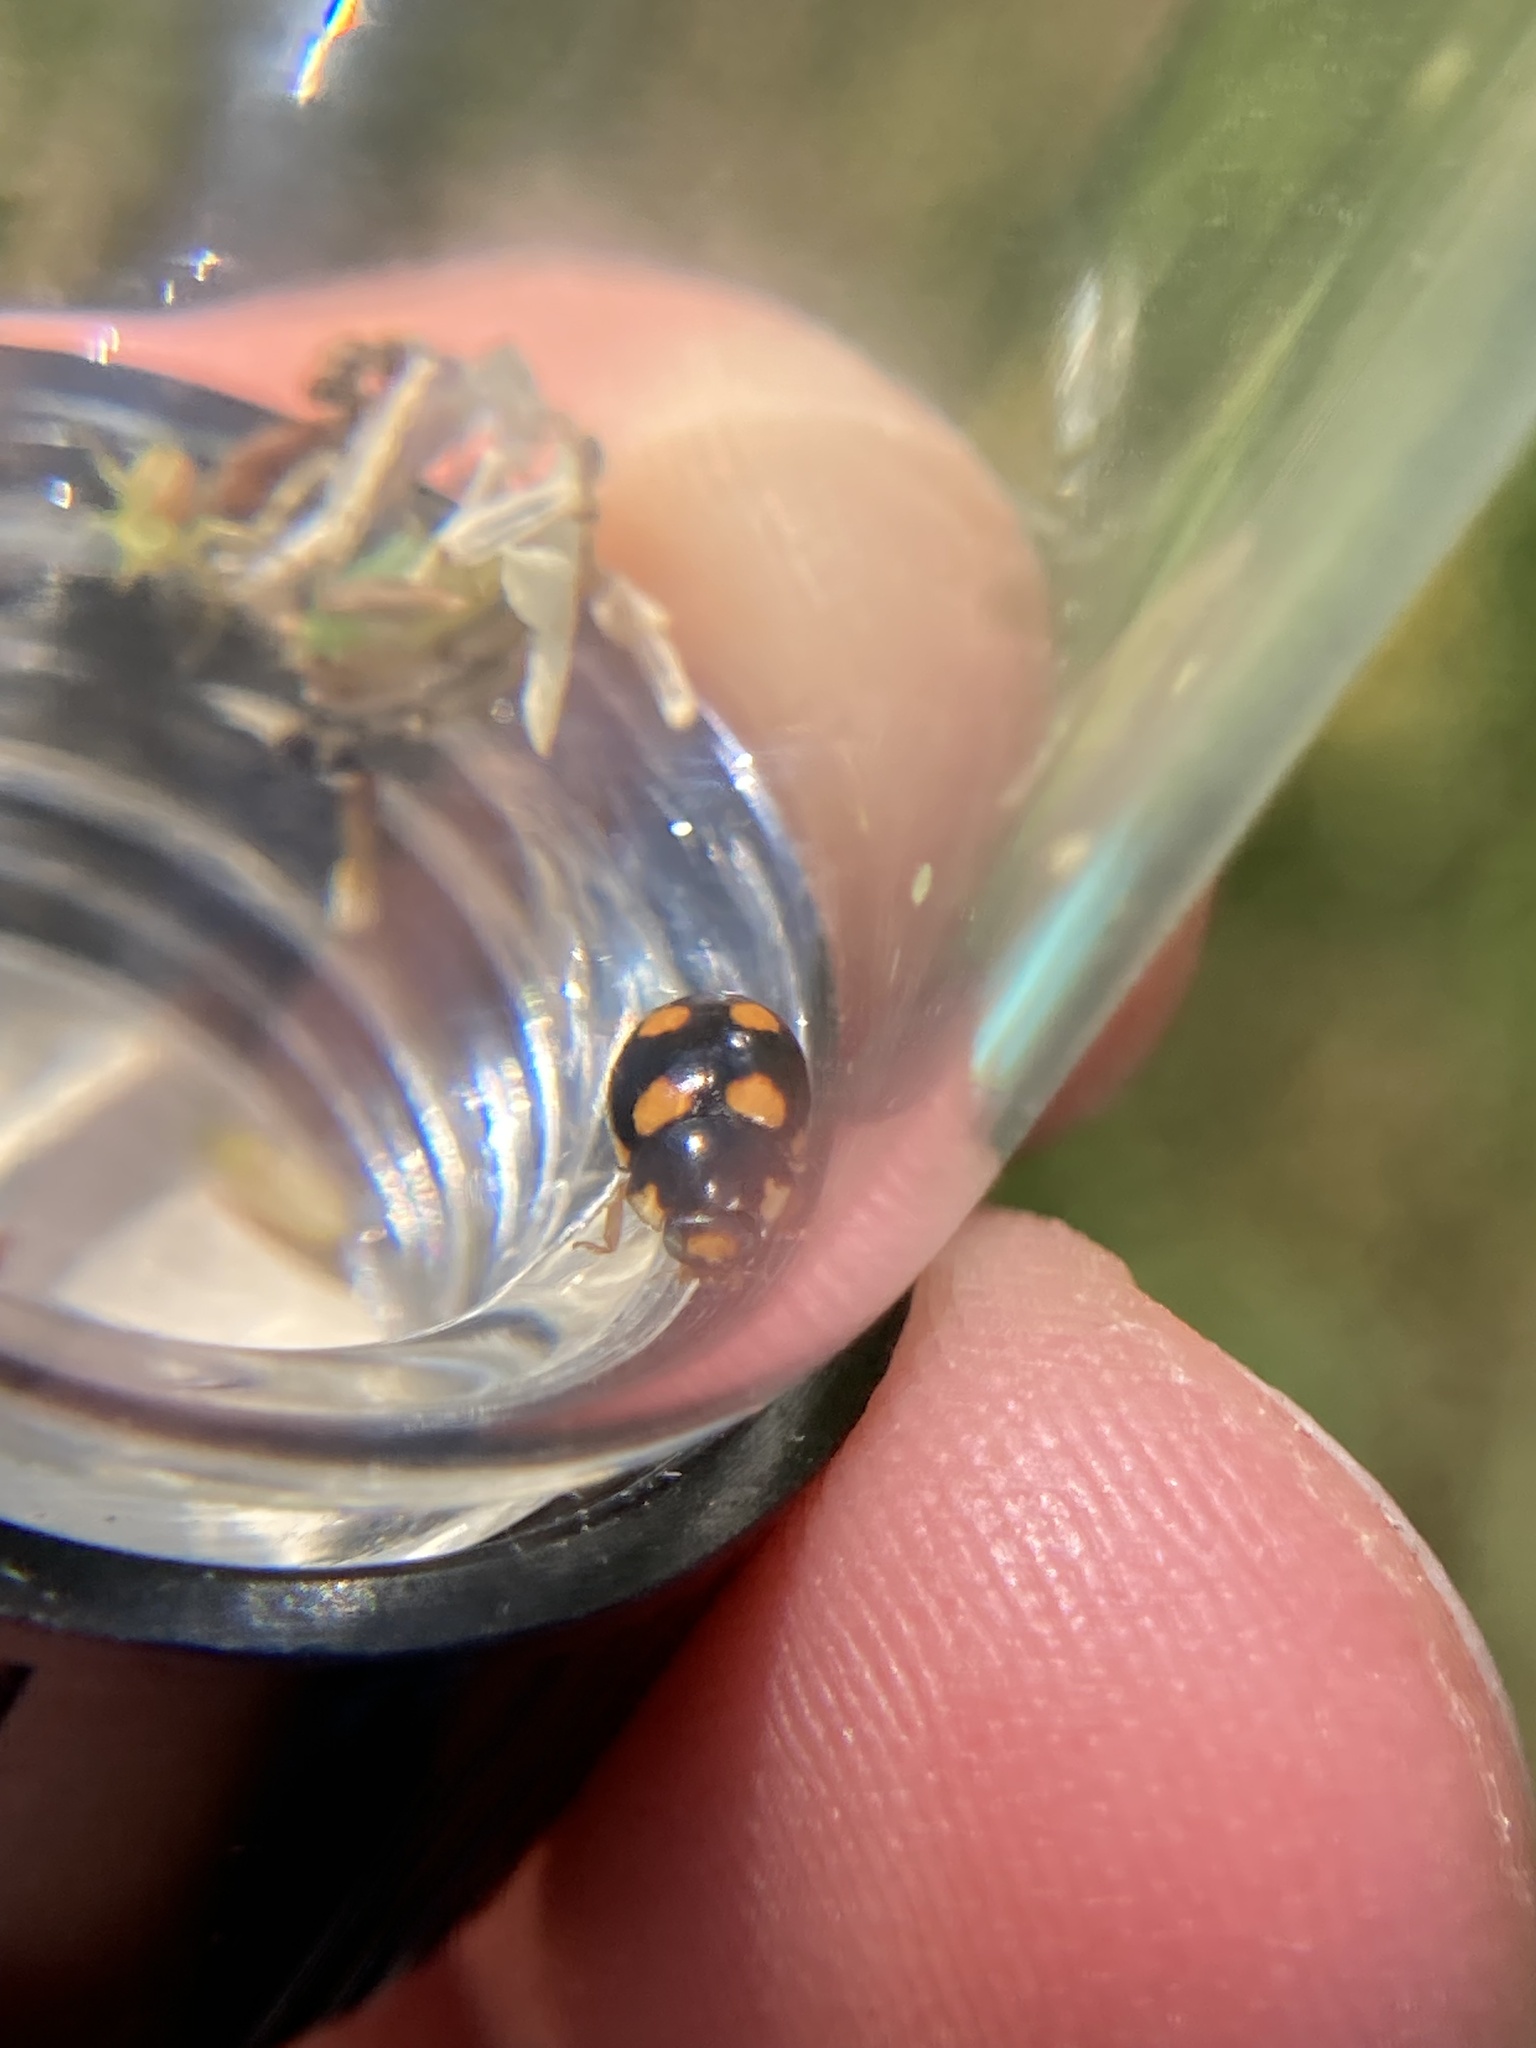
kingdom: Animalia
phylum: Arthropoda
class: Insecta
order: Coleoptera
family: Coccinellidae
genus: Brachiacantha
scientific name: Brachiacantha ursina
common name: Ursine spurleg lady beetle
